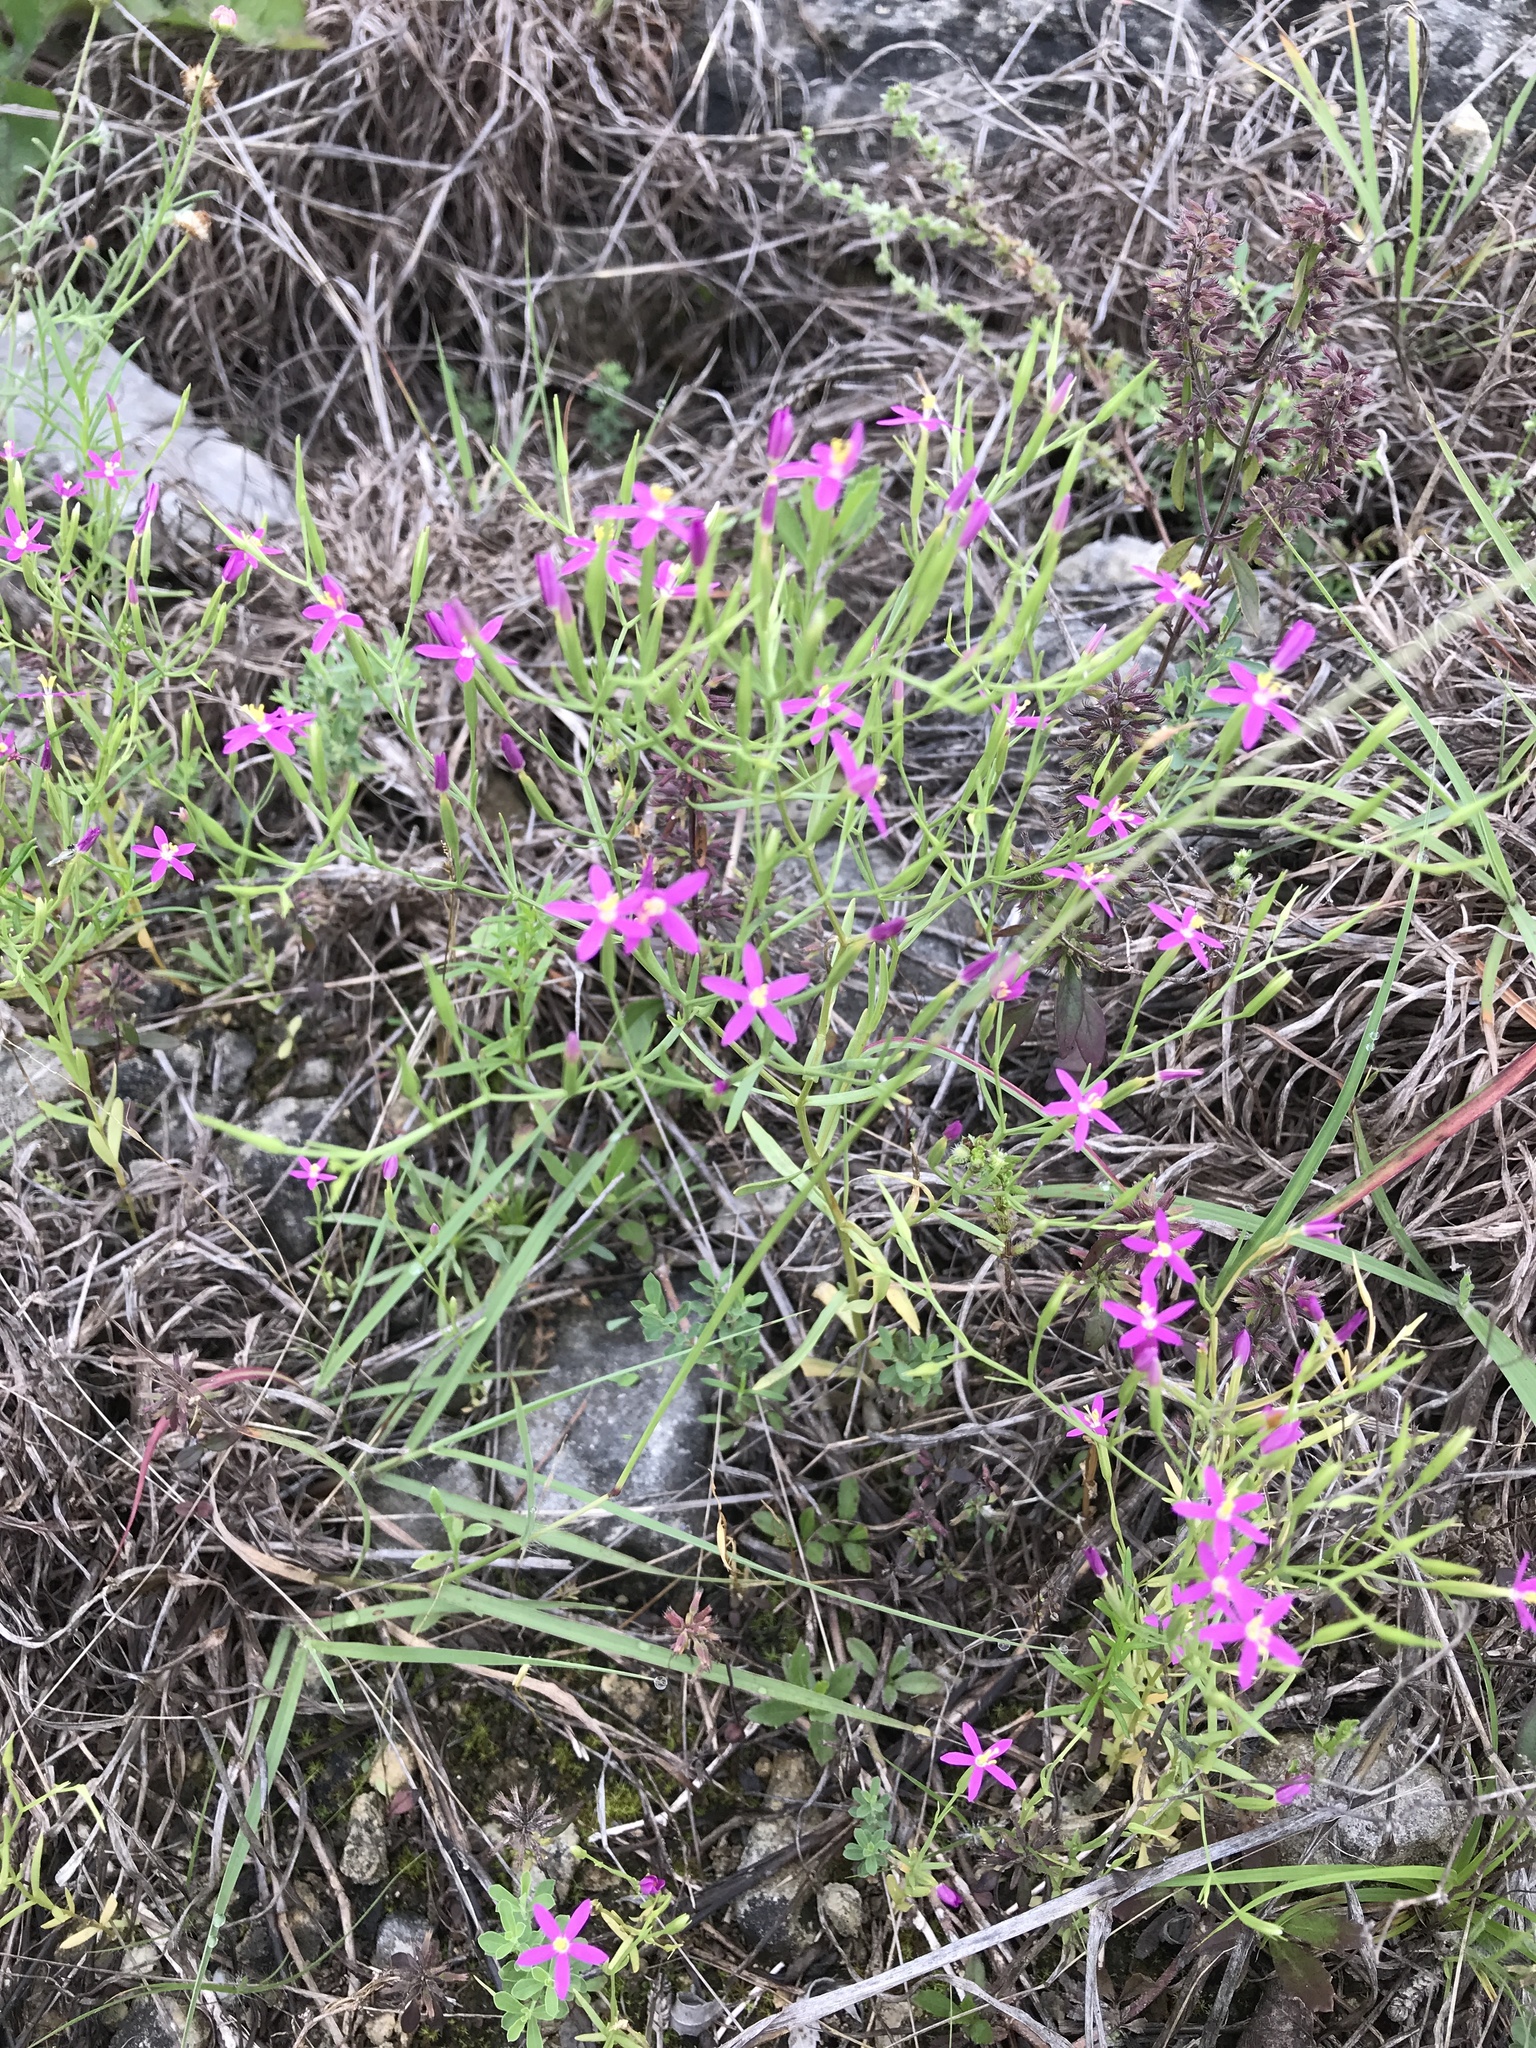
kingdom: Plantae
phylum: Tracheophyta
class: Magnoliopsida
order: Gentianales
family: Gentianaceae
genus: Zeltnera
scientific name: Zeltnera texensis
